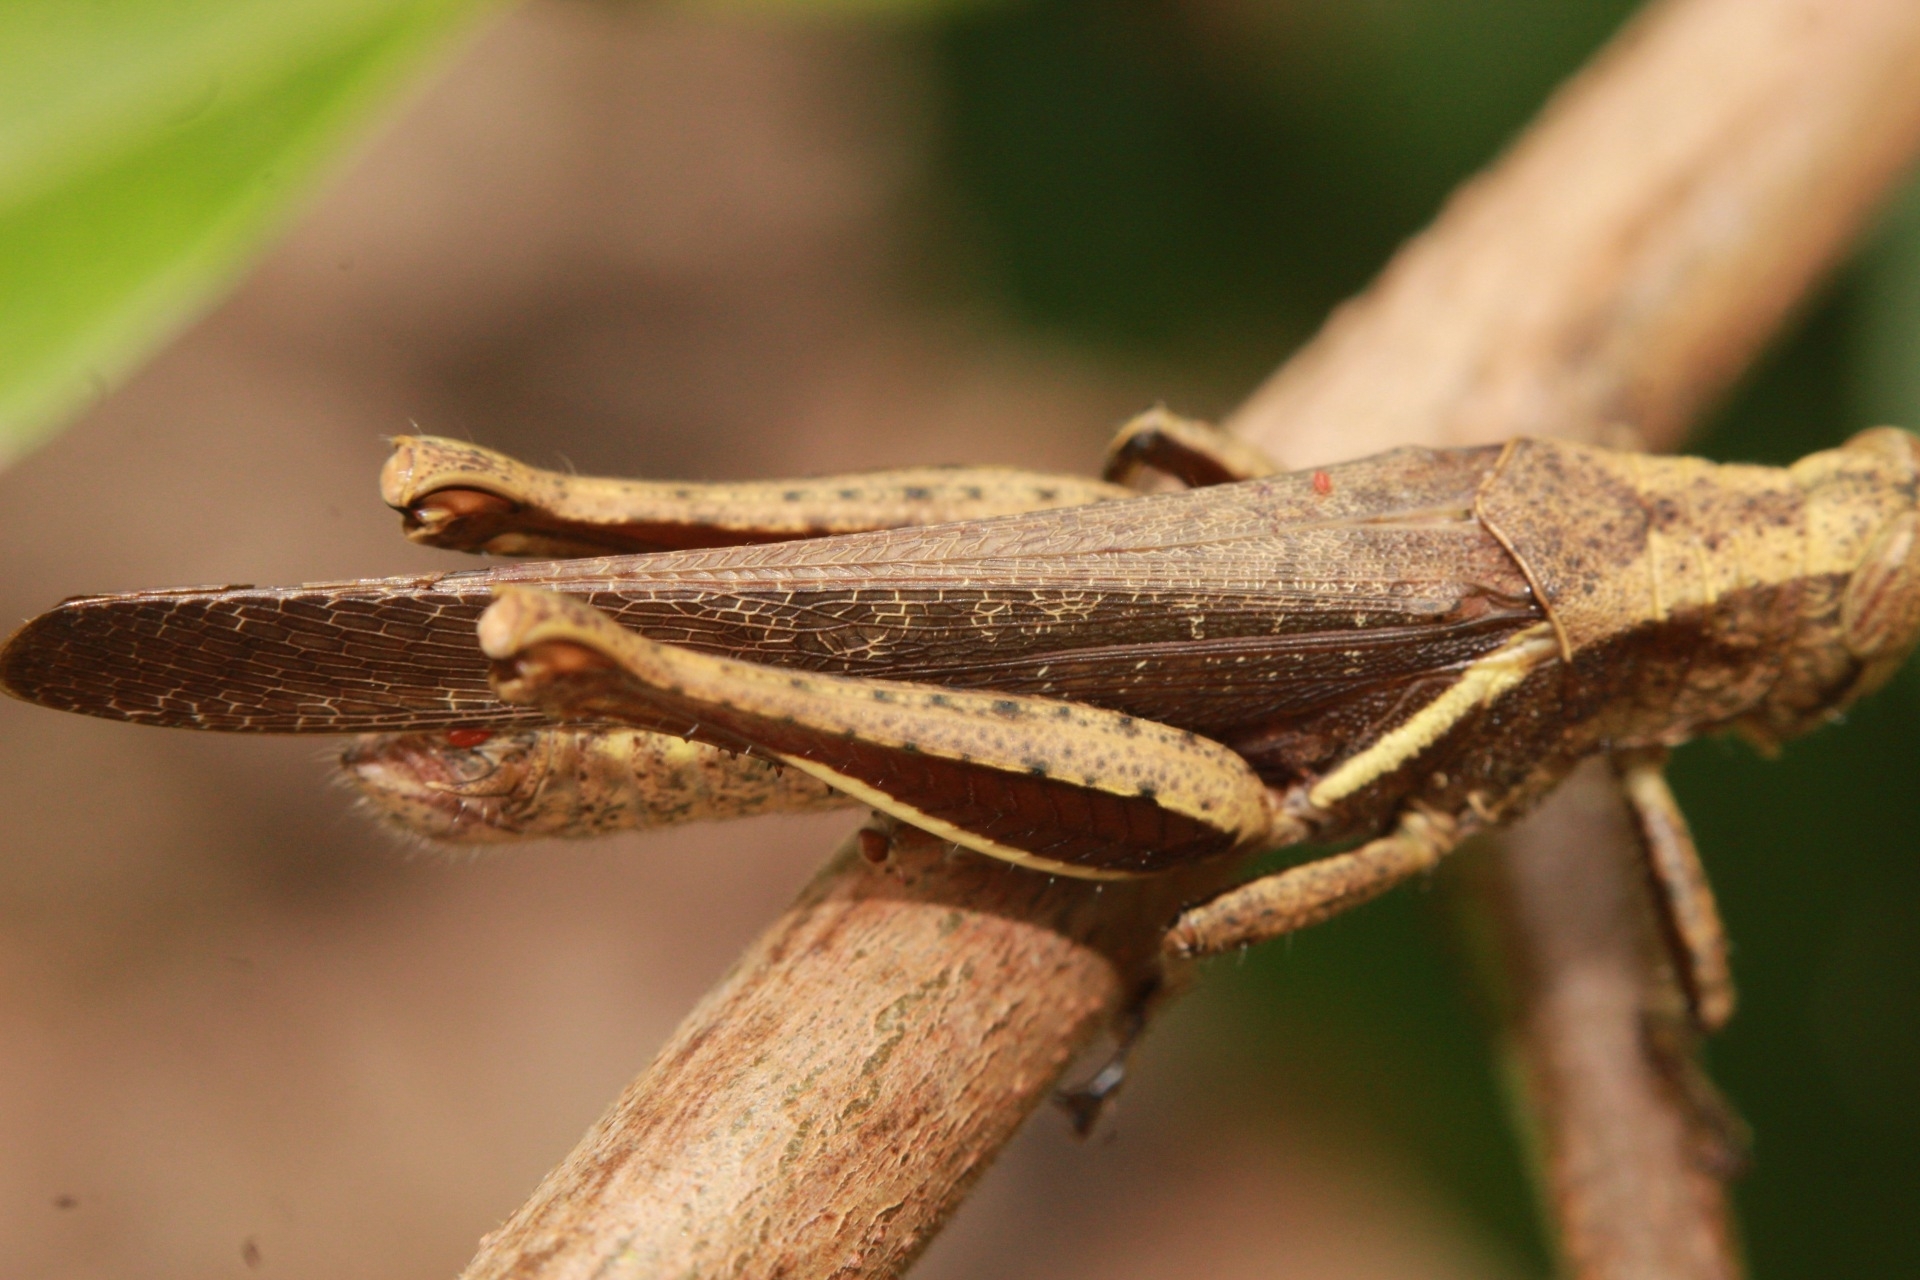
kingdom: Animalia
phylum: Arthropoda
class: Insecta
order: Orthoptera
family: Acrididae
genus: Abracris
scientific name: Abracris flavolineata
